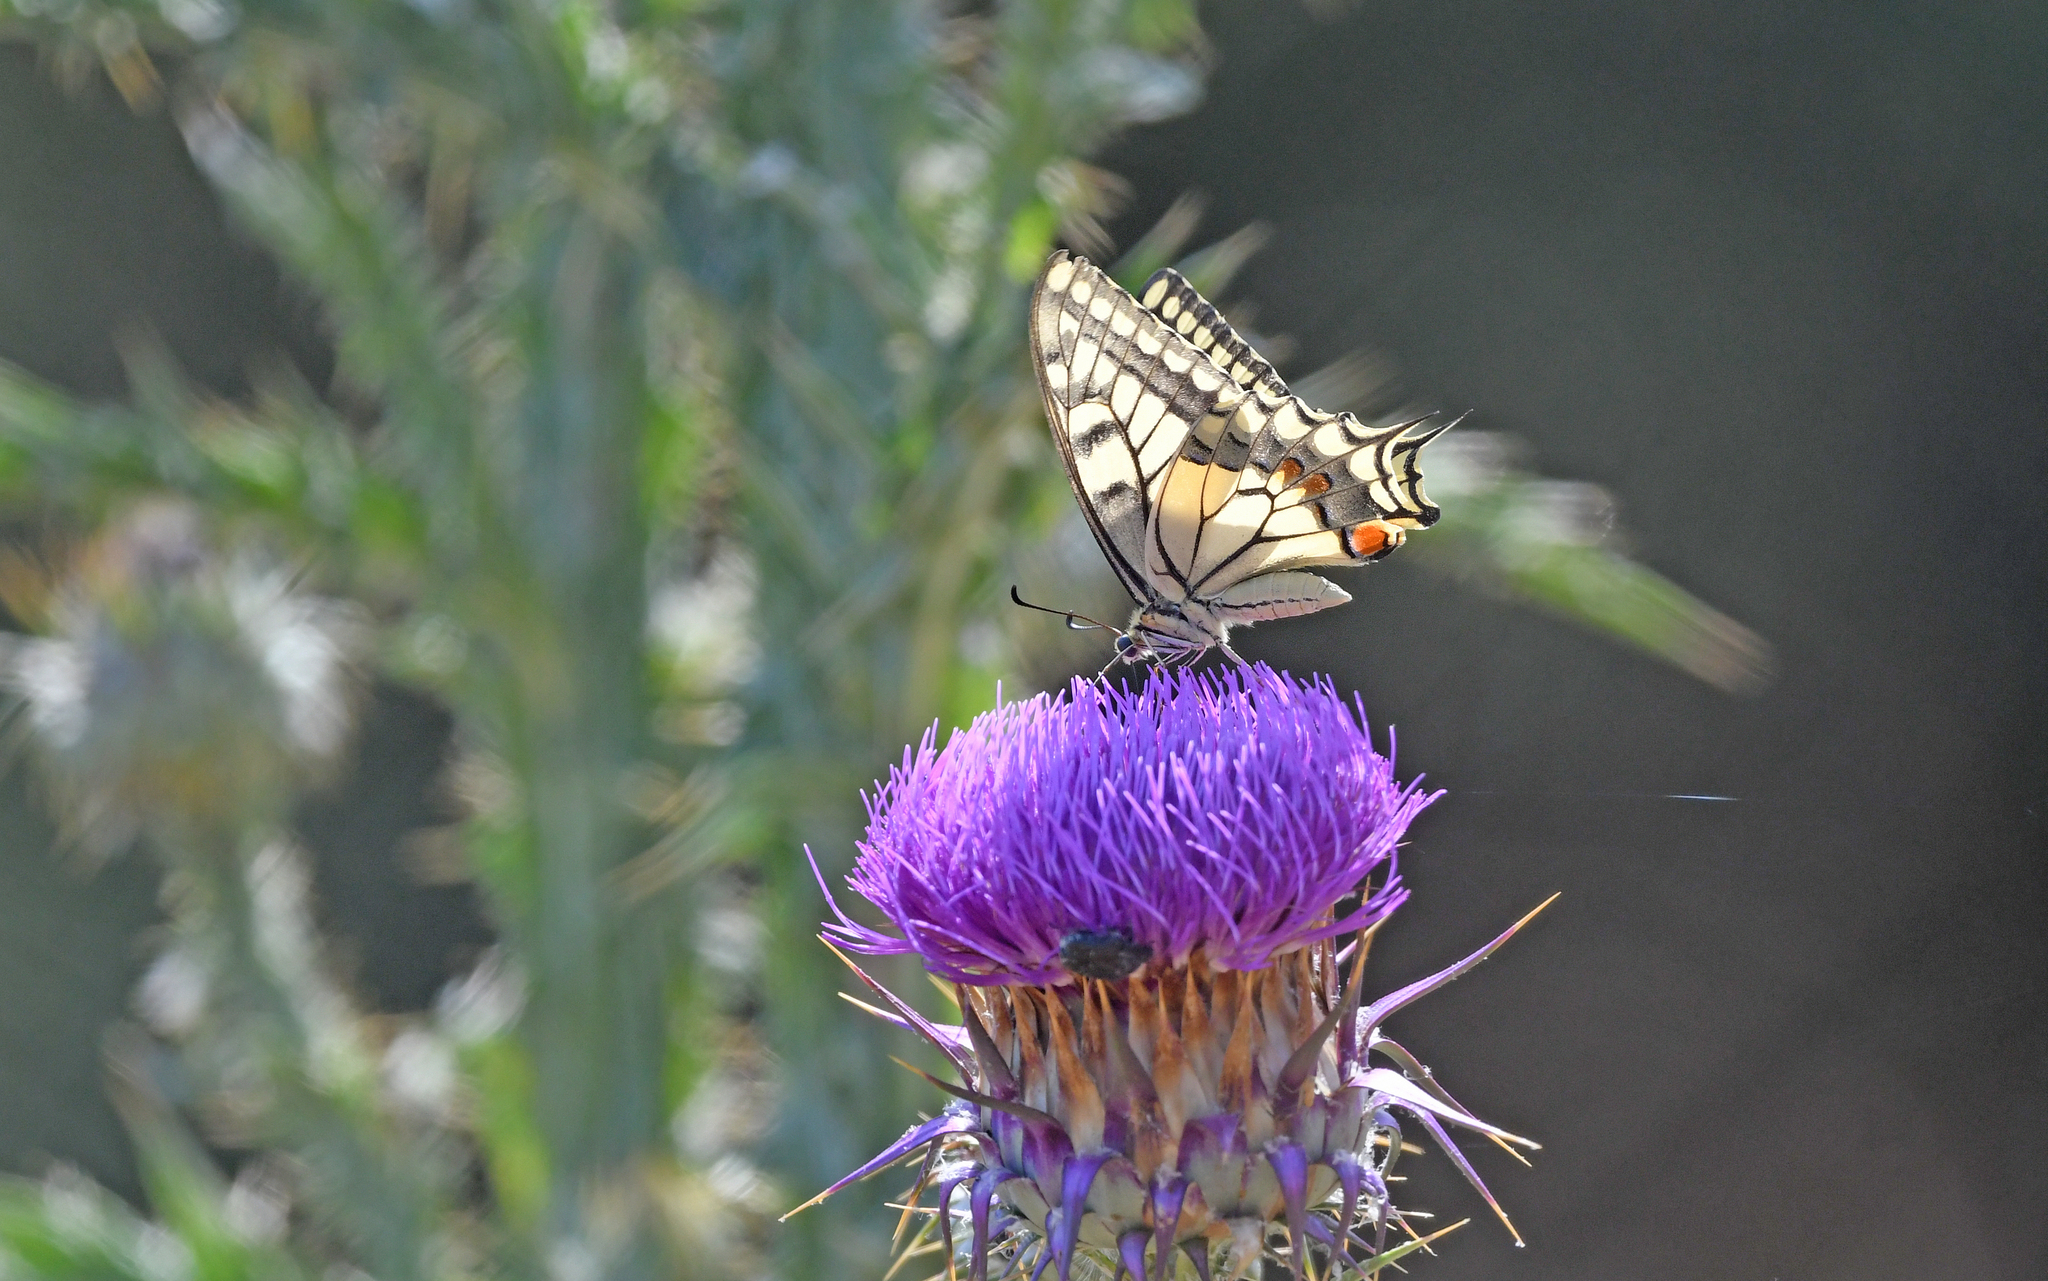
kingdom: Animalia
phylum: Arthropoda
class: Insecta
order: Lepidoptera
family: Papilionidae
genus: Papilio
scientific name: Papilio machaon
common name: Swallowtail
